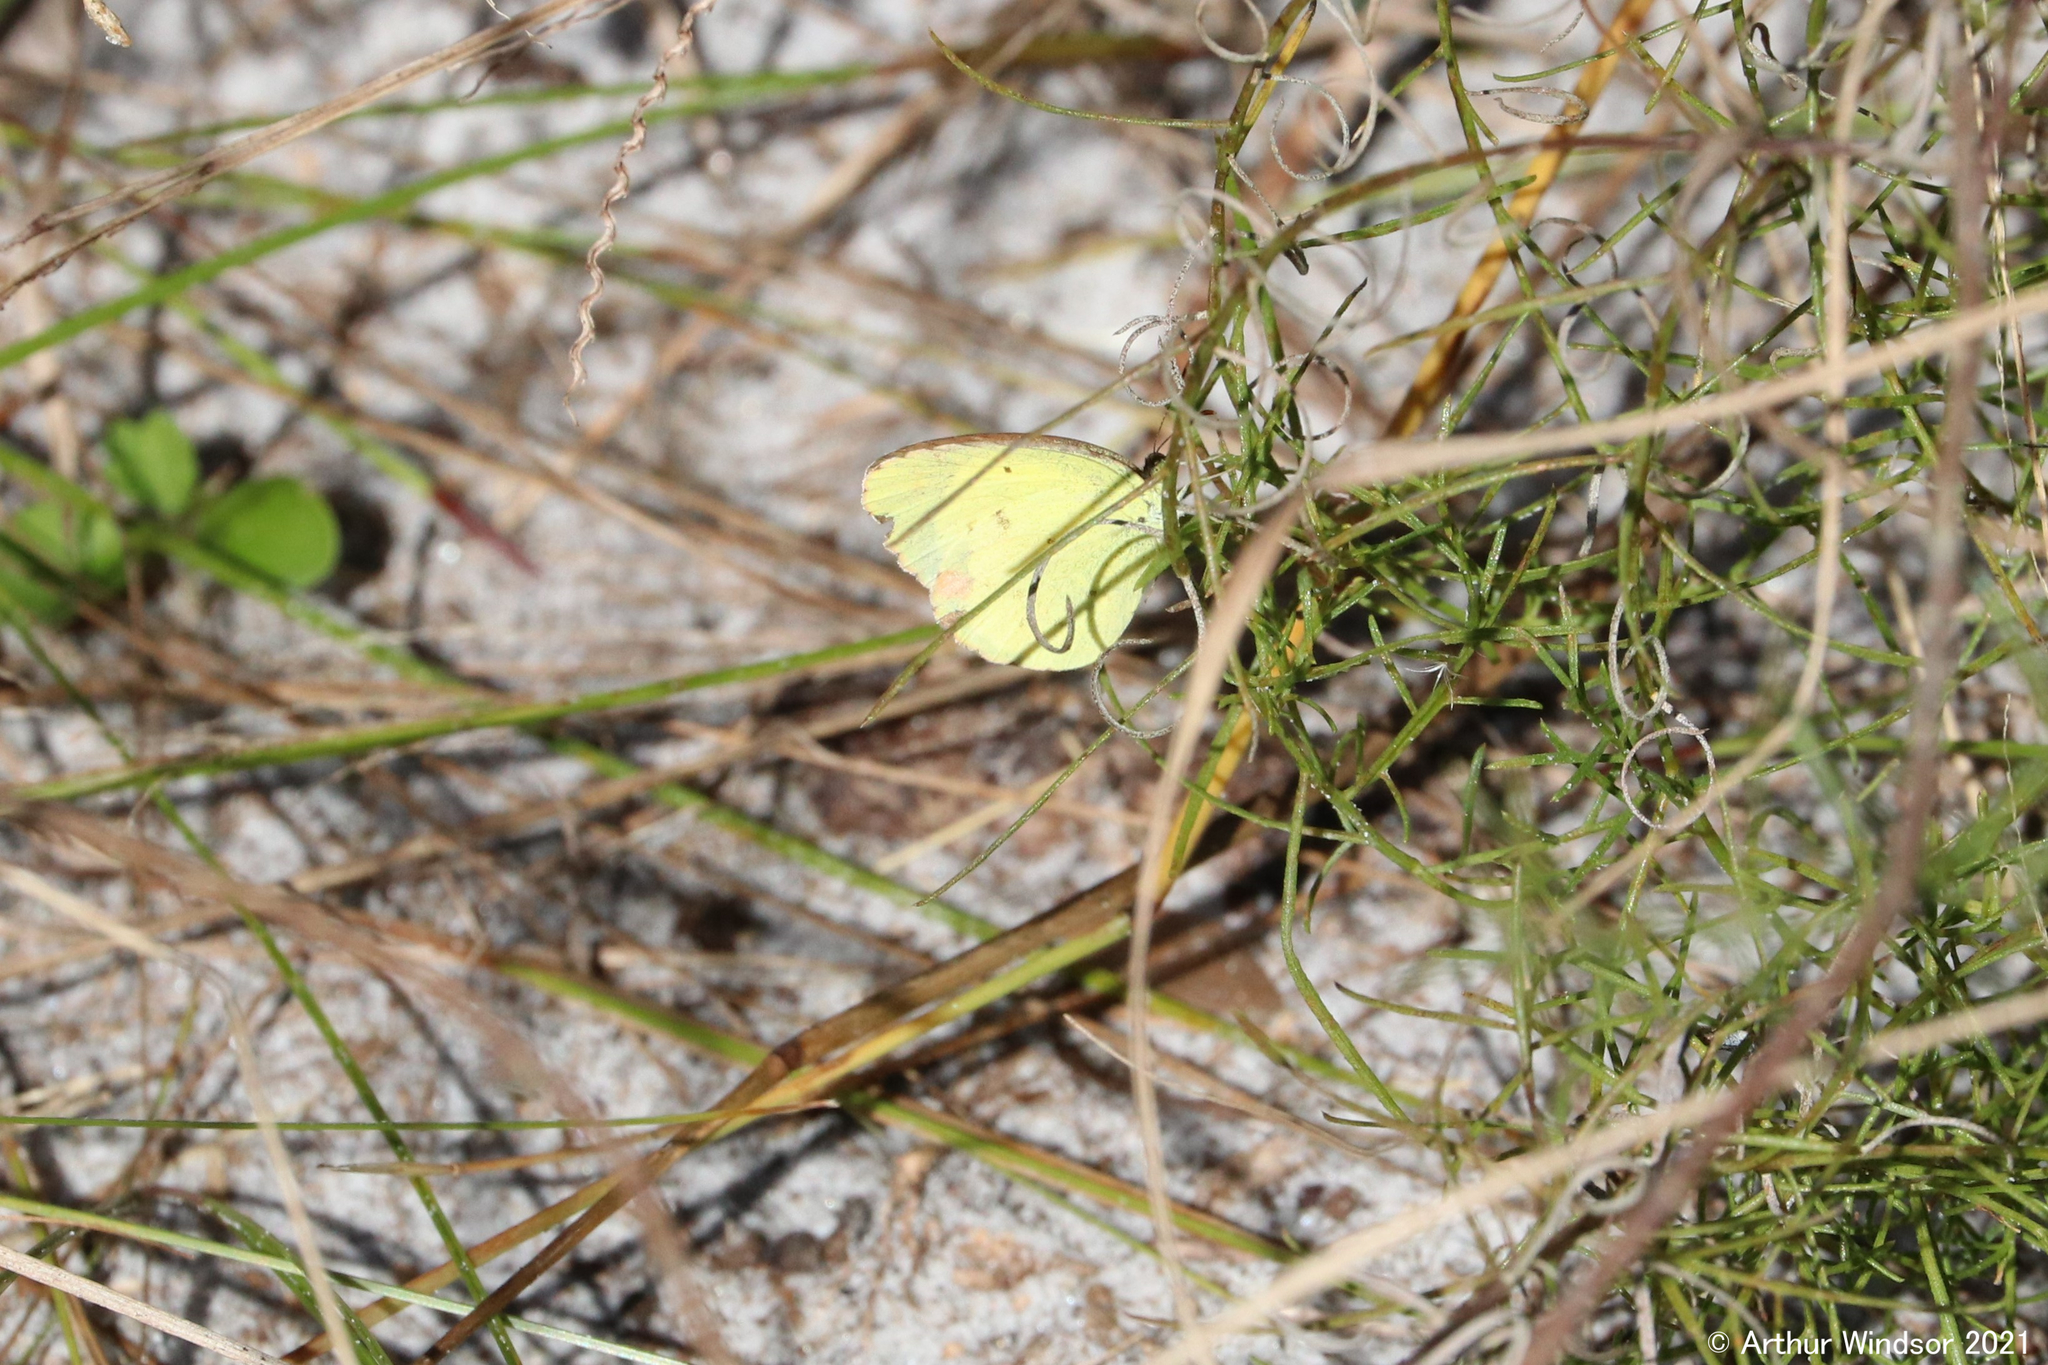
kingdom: Animalia
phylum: Arthropoda
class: Insecta
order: Lepidoptera
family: Pieridae
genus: Pyrisitia
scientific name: Pyrisitia lisa
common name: Little yellow
